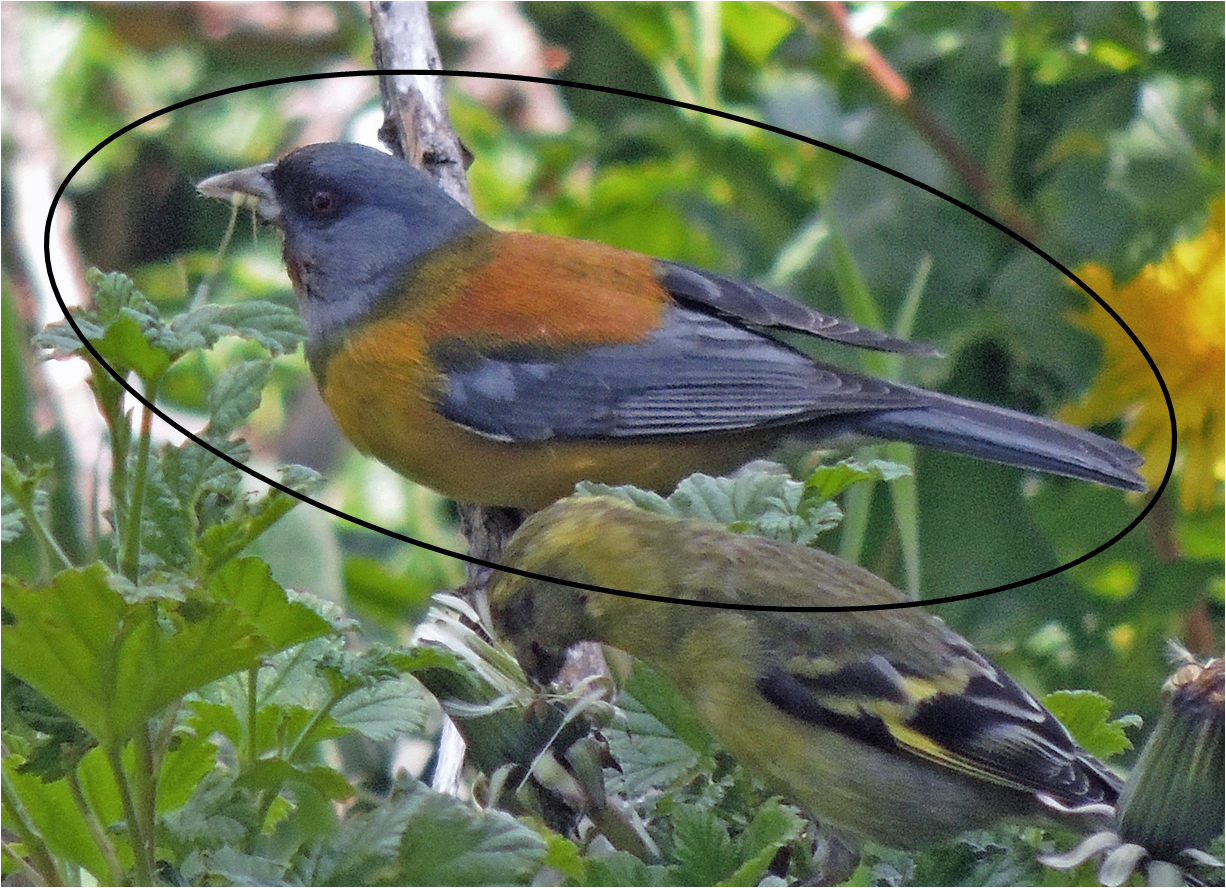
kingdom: Animalia
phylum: Chordata
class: Aves
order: Passeriformes
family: Thraupidae
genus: Phrygilus
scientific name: Phrygilus patagonicus
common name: Patagonian sierra finch
